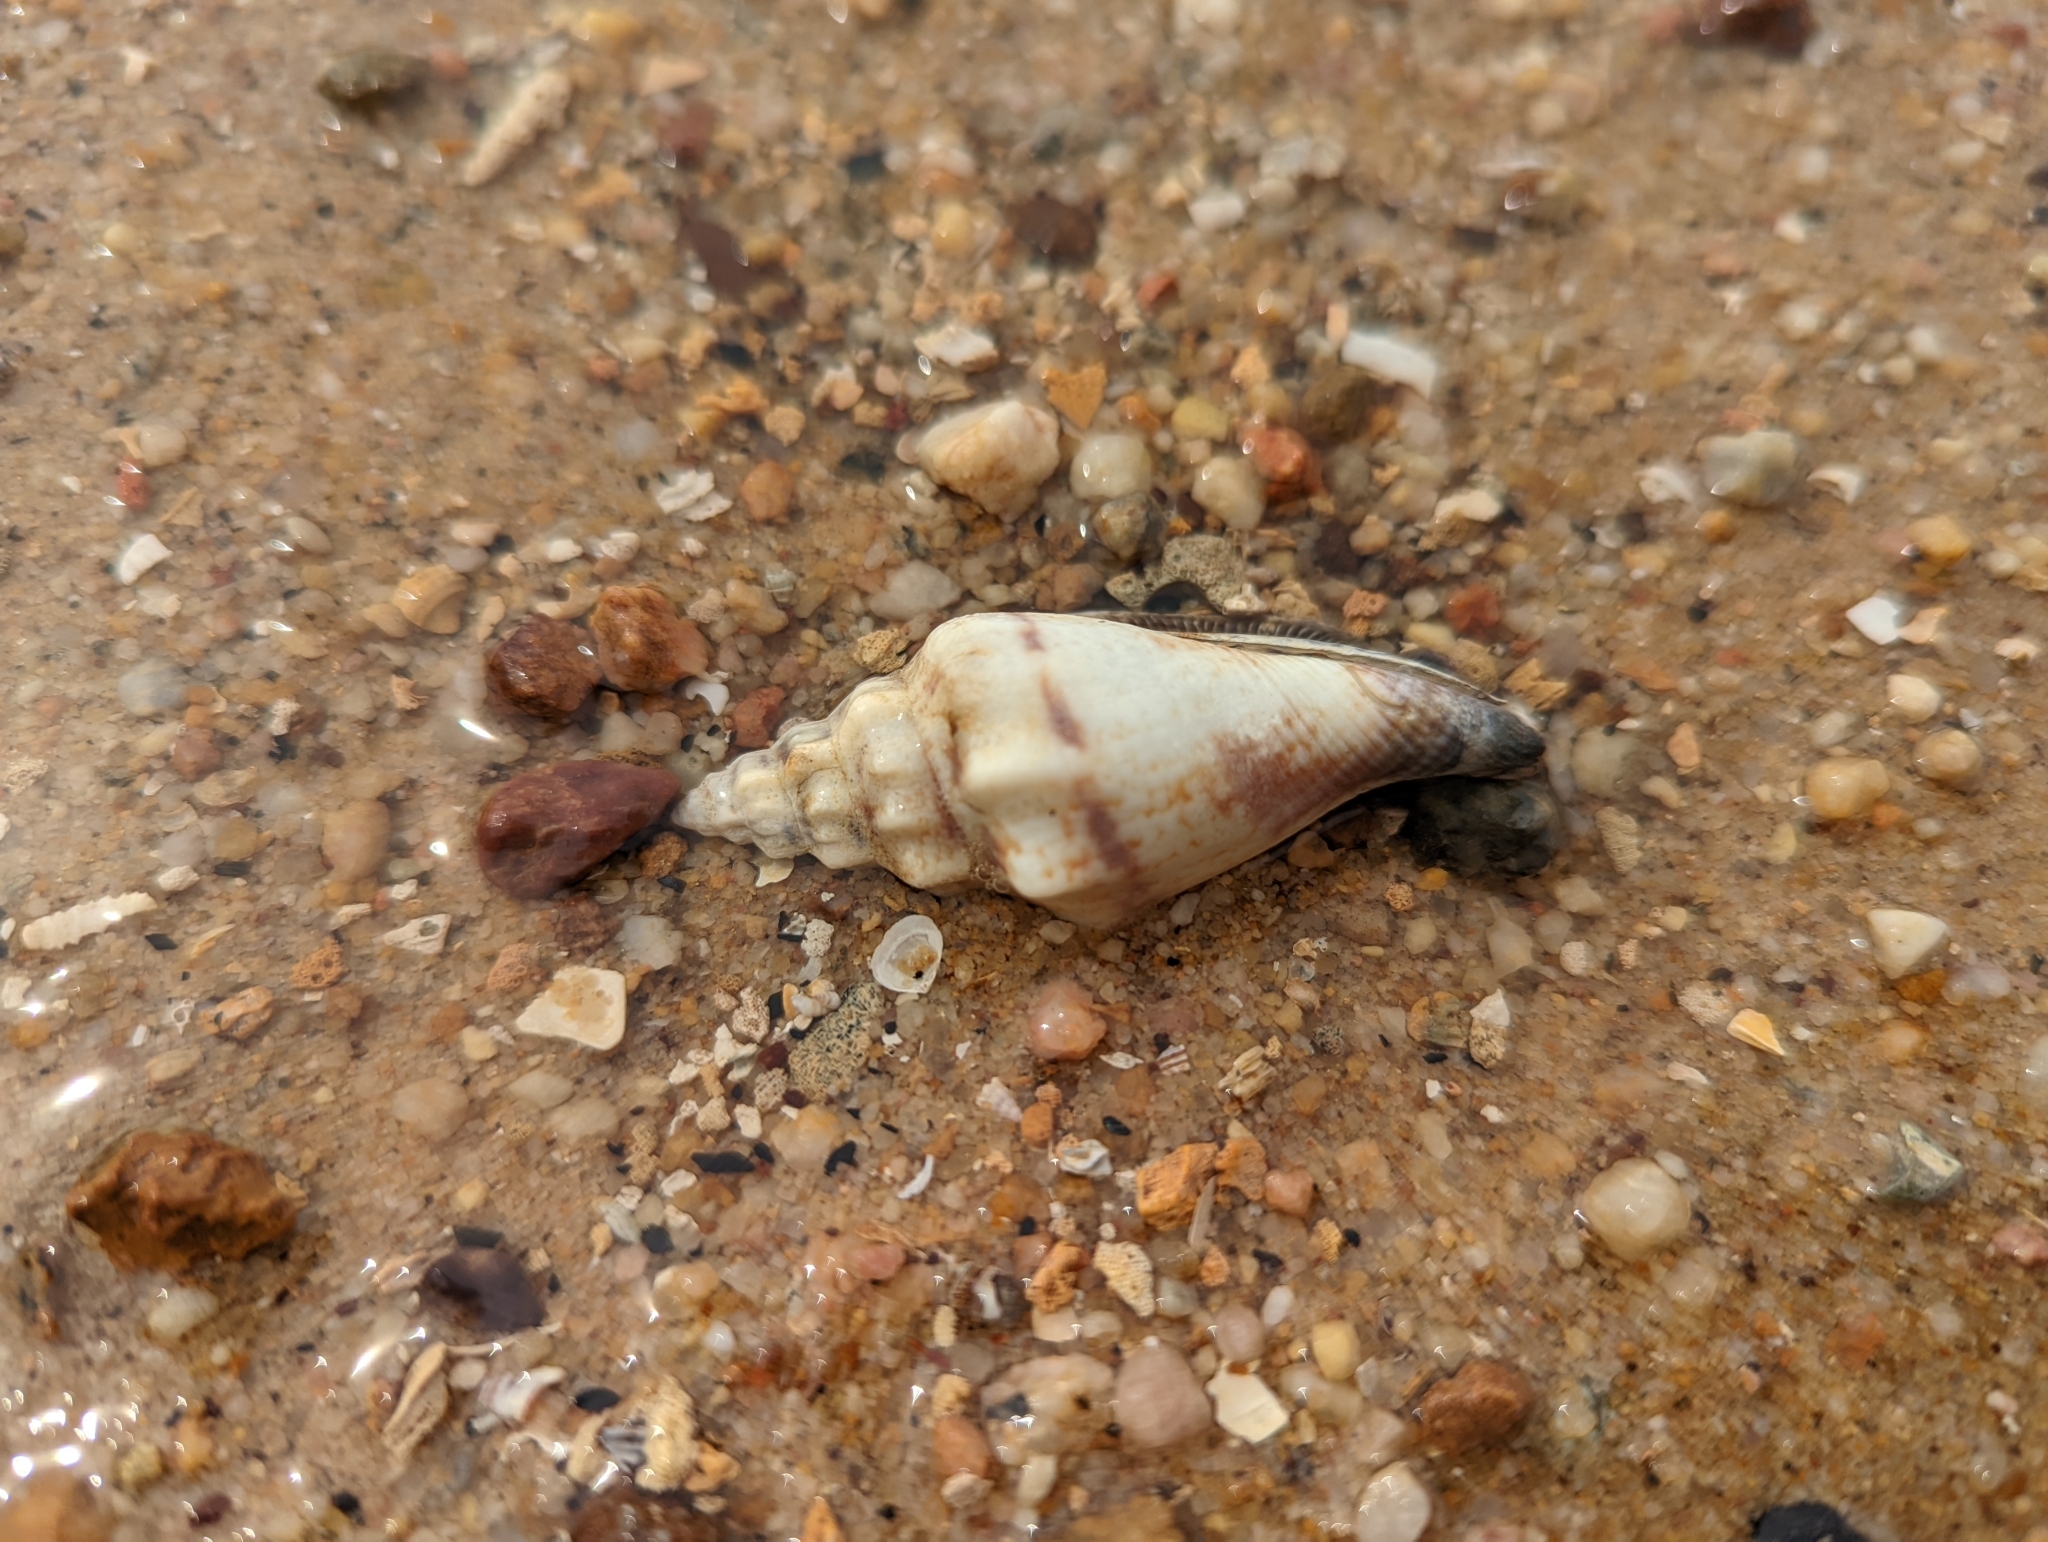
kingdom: Animalia
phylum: Mollusca
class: Gastropoda
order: Littorinimorpha
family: Strombidae
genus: Canarium
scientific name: Canarium urceus
